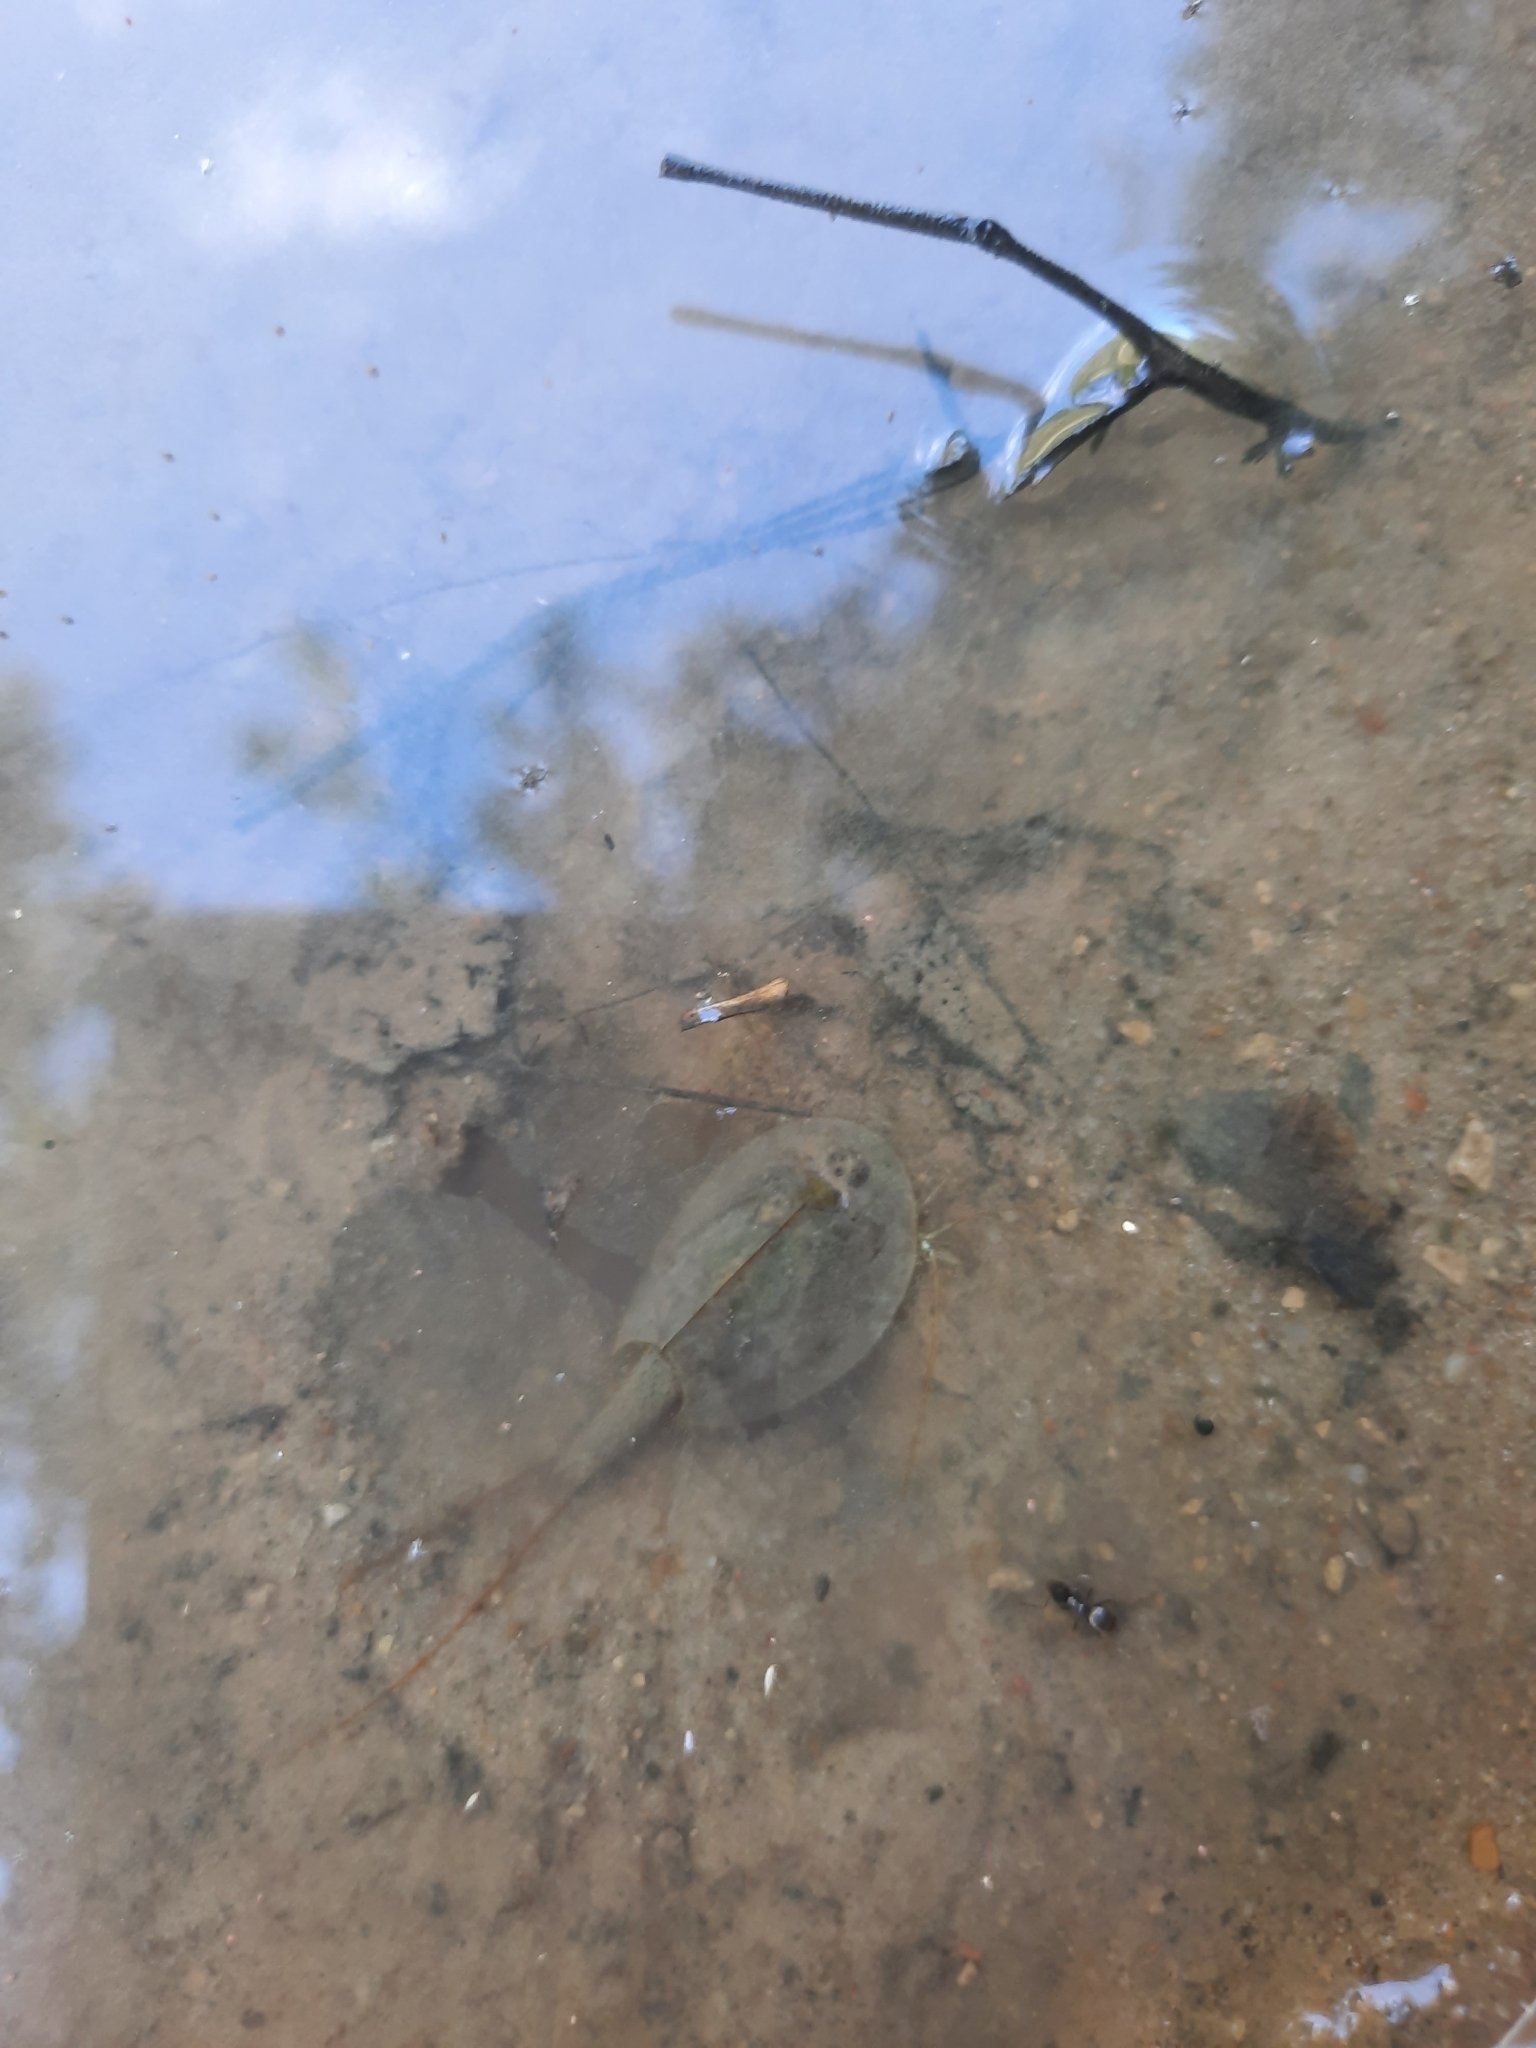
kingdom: Animalia
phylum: Arthropoda
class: Branchiopoda
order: Notostraca
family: Triopsidae
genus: Triops
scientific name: Triops cancriformis
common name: Tadpole shrimp
